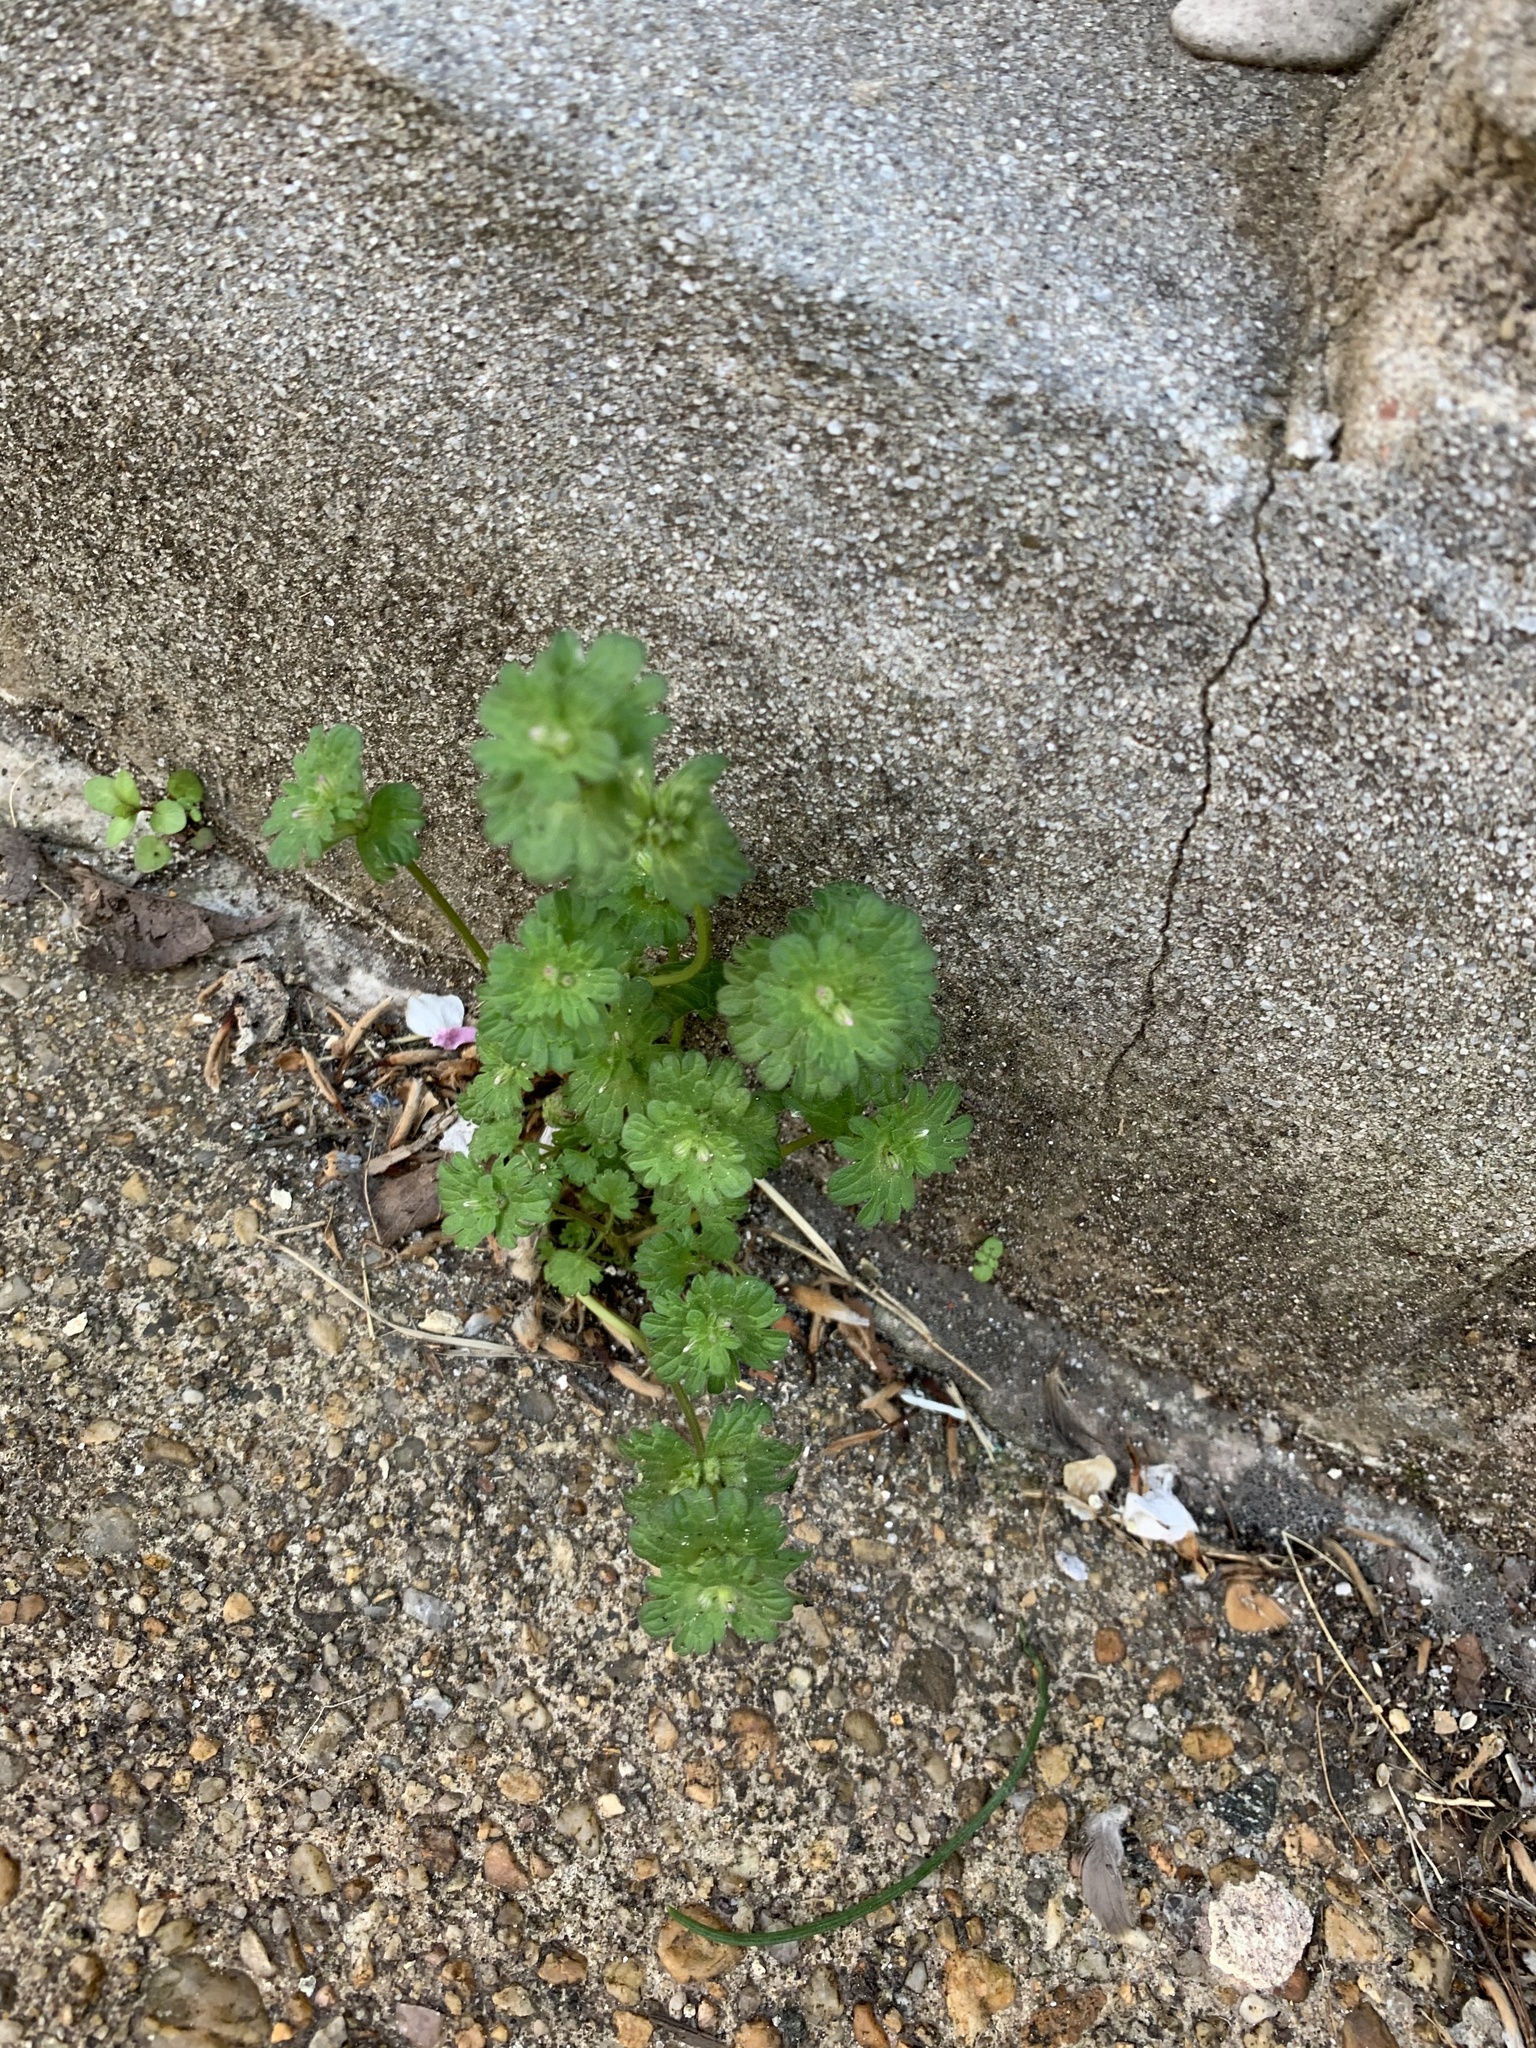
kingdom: Plantae
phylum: Tracheophyta
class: Magnoliopsida
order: Lamiales
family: Lamiaceae
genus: Lamium
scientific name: Lamium amplexicaule
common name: Henbit dead-nettle
